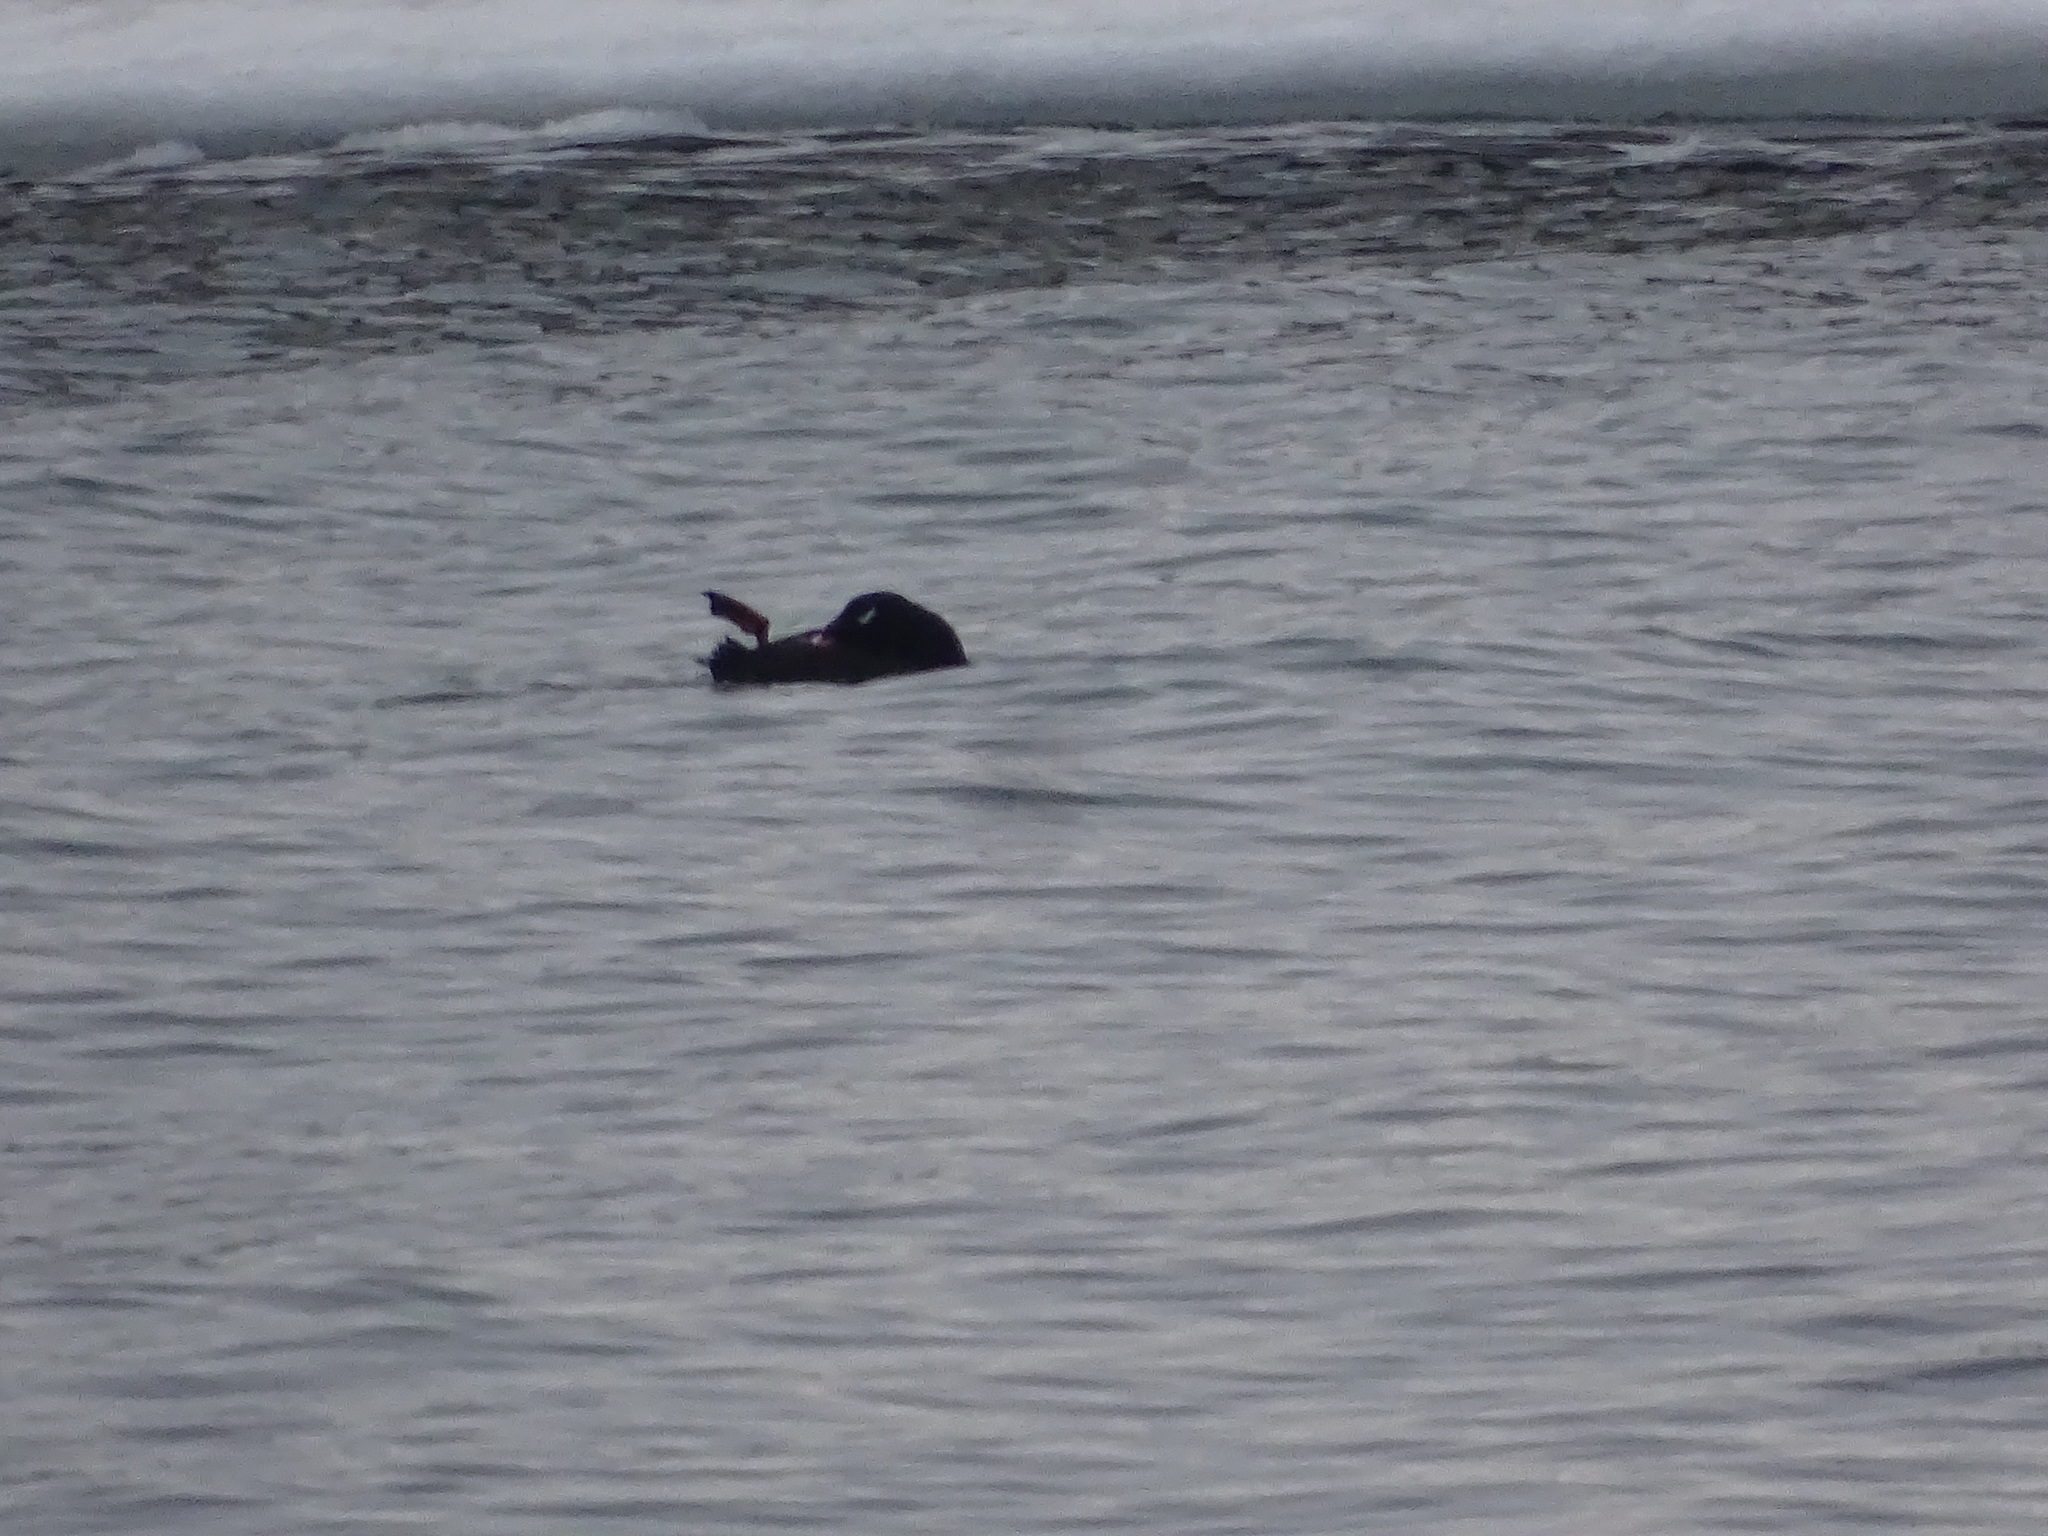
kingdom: Animalia
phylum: Chordata
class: Aves
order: Anseriformes
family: Anatidae
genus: Melanitta
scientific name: Melanitta deglandi
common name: White-winged scoter
